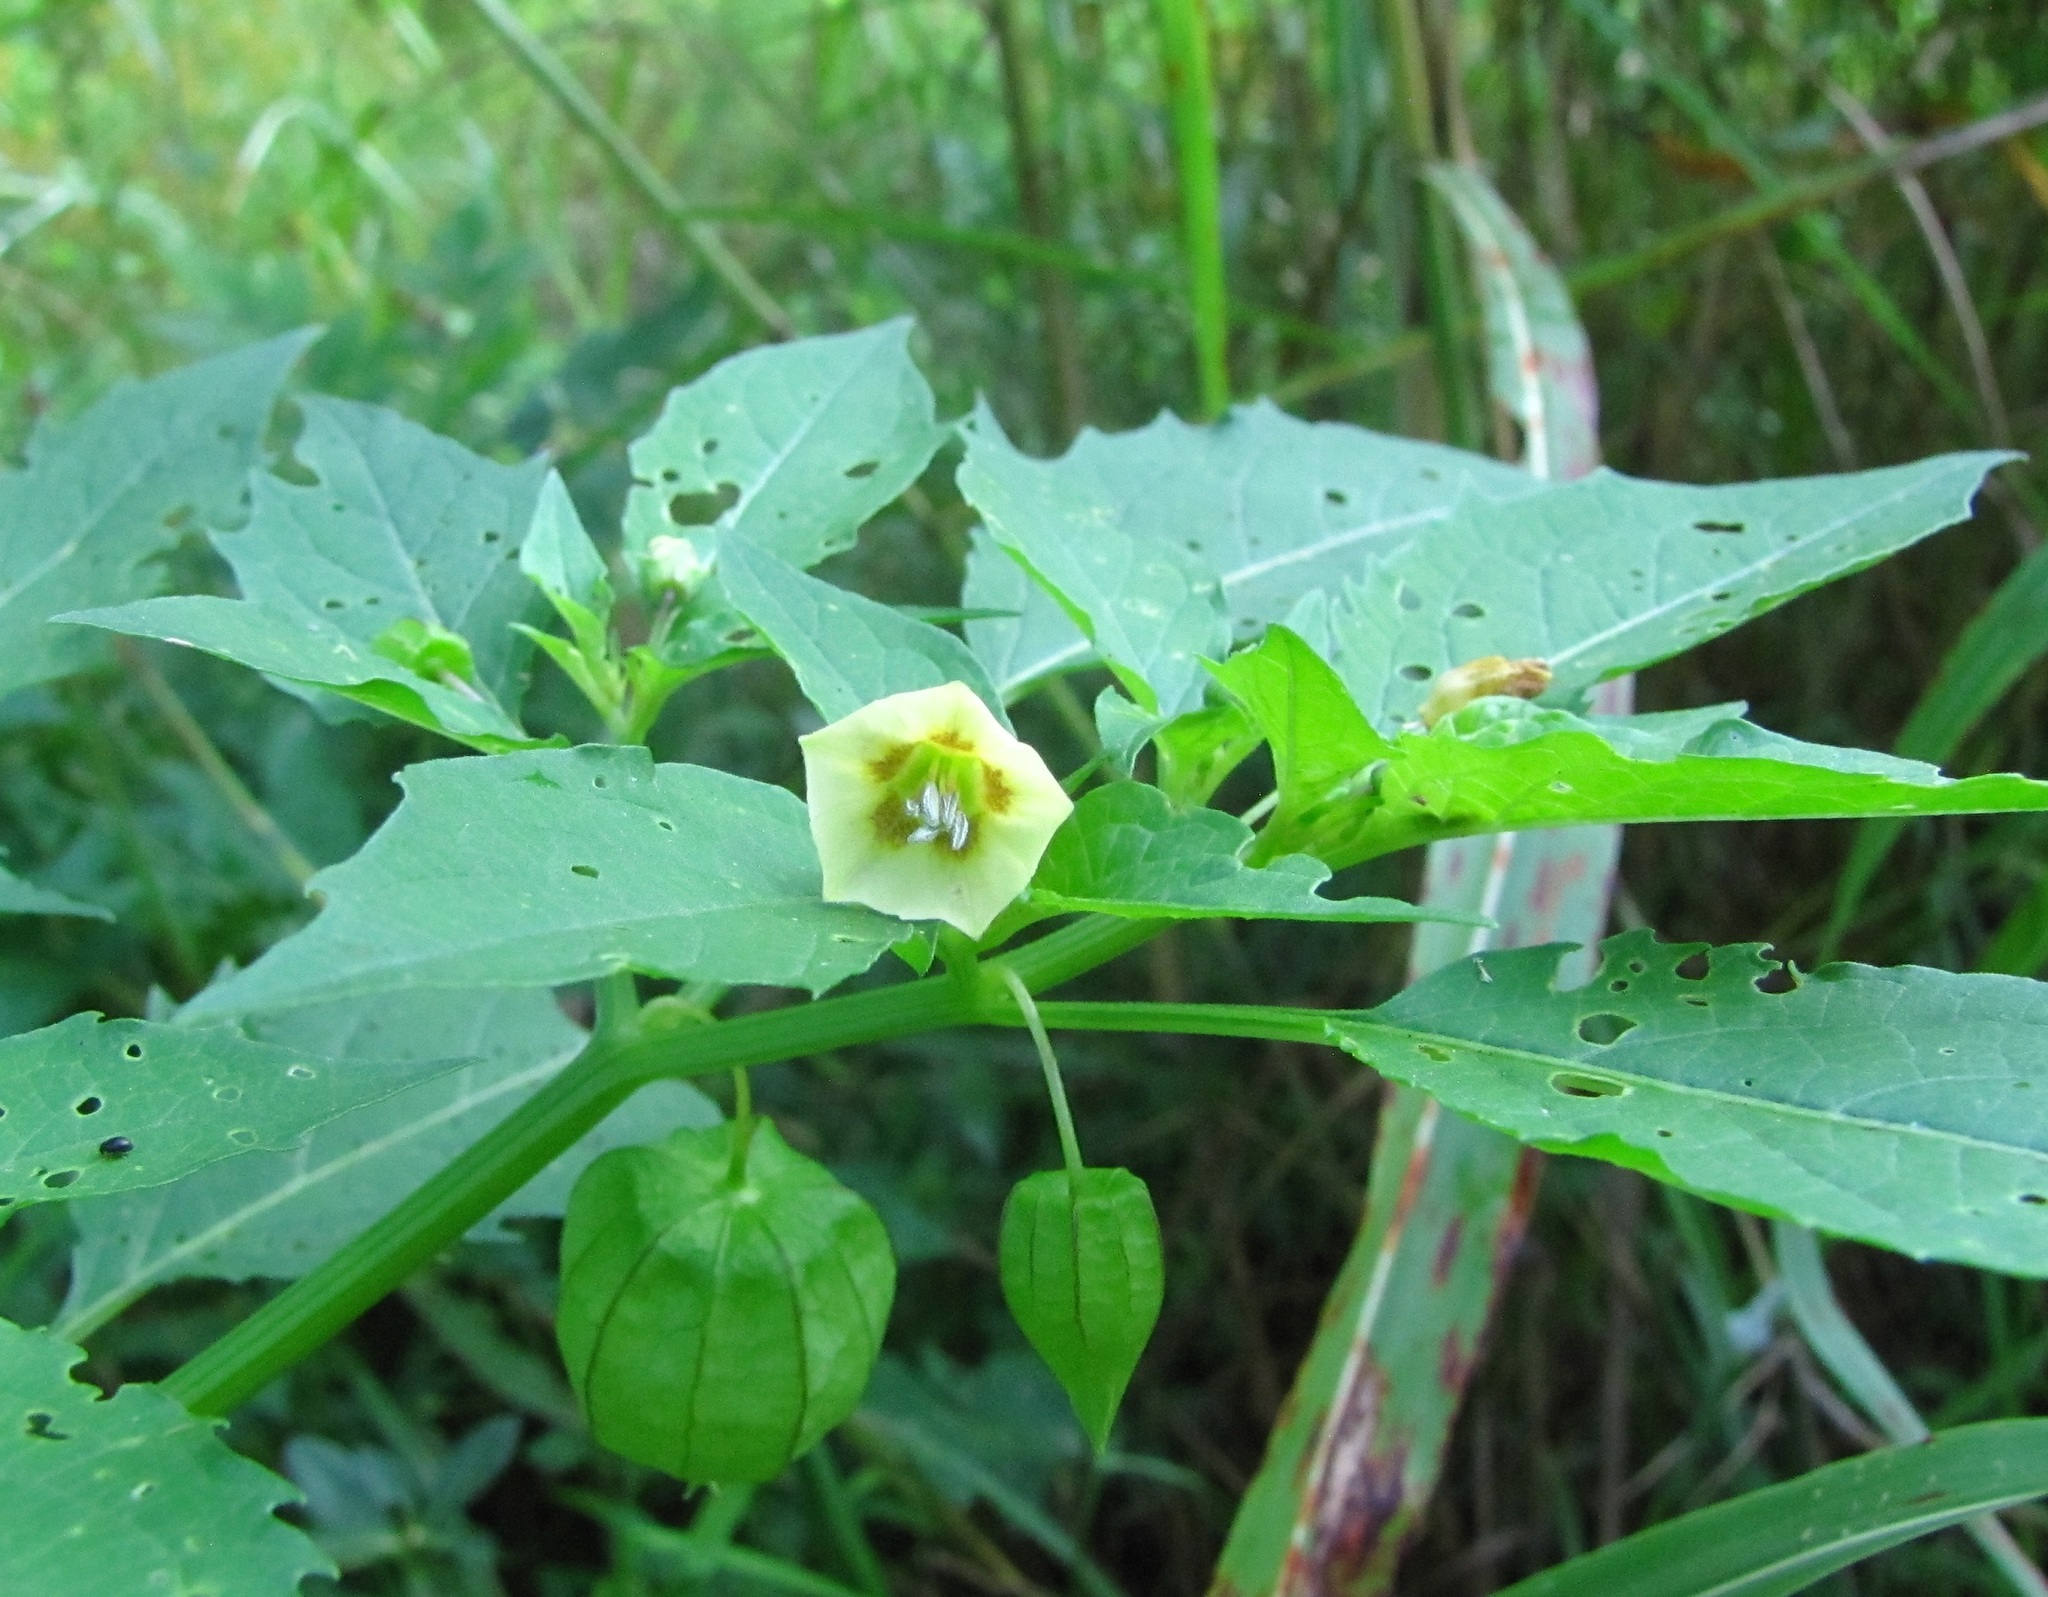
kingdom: Plantae
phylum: Tracheophyta
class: Magnoliopsida
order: Solanales
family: Solanaceae
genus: Physalis
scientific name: Physalis angulata
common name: Angular winter-cherry
